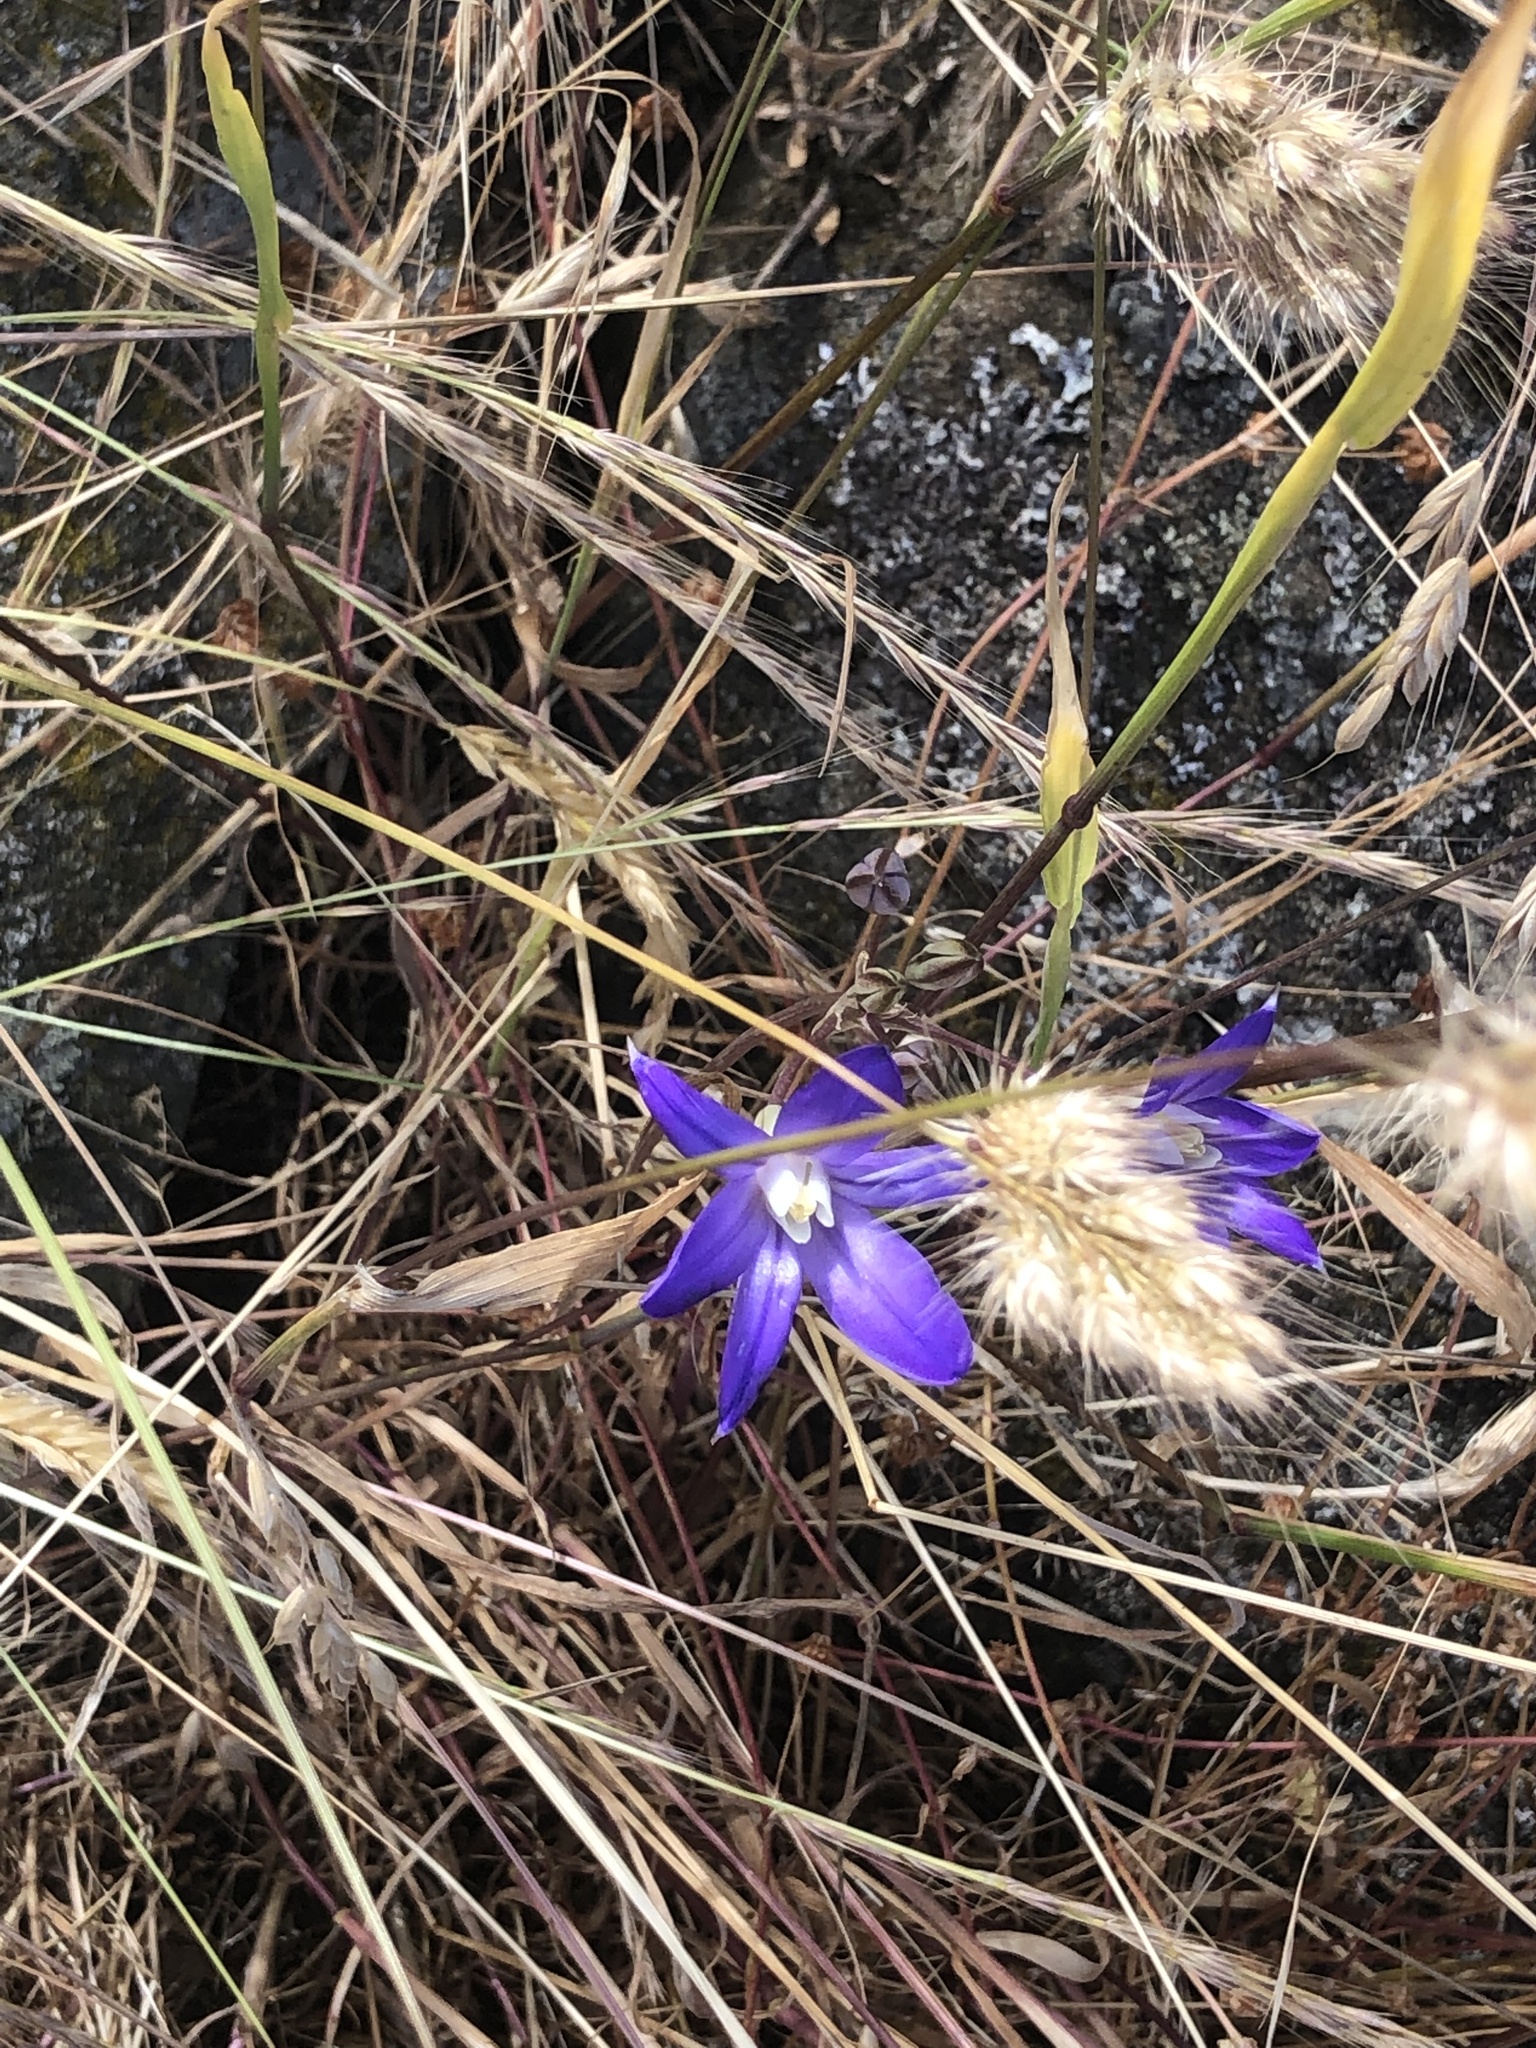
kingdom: Plantae
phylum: Tracheophyta
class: Liliopsida
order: Asparagales
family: Asparagaceae
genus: Brodiaea
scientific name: Brodiaea coronaria
